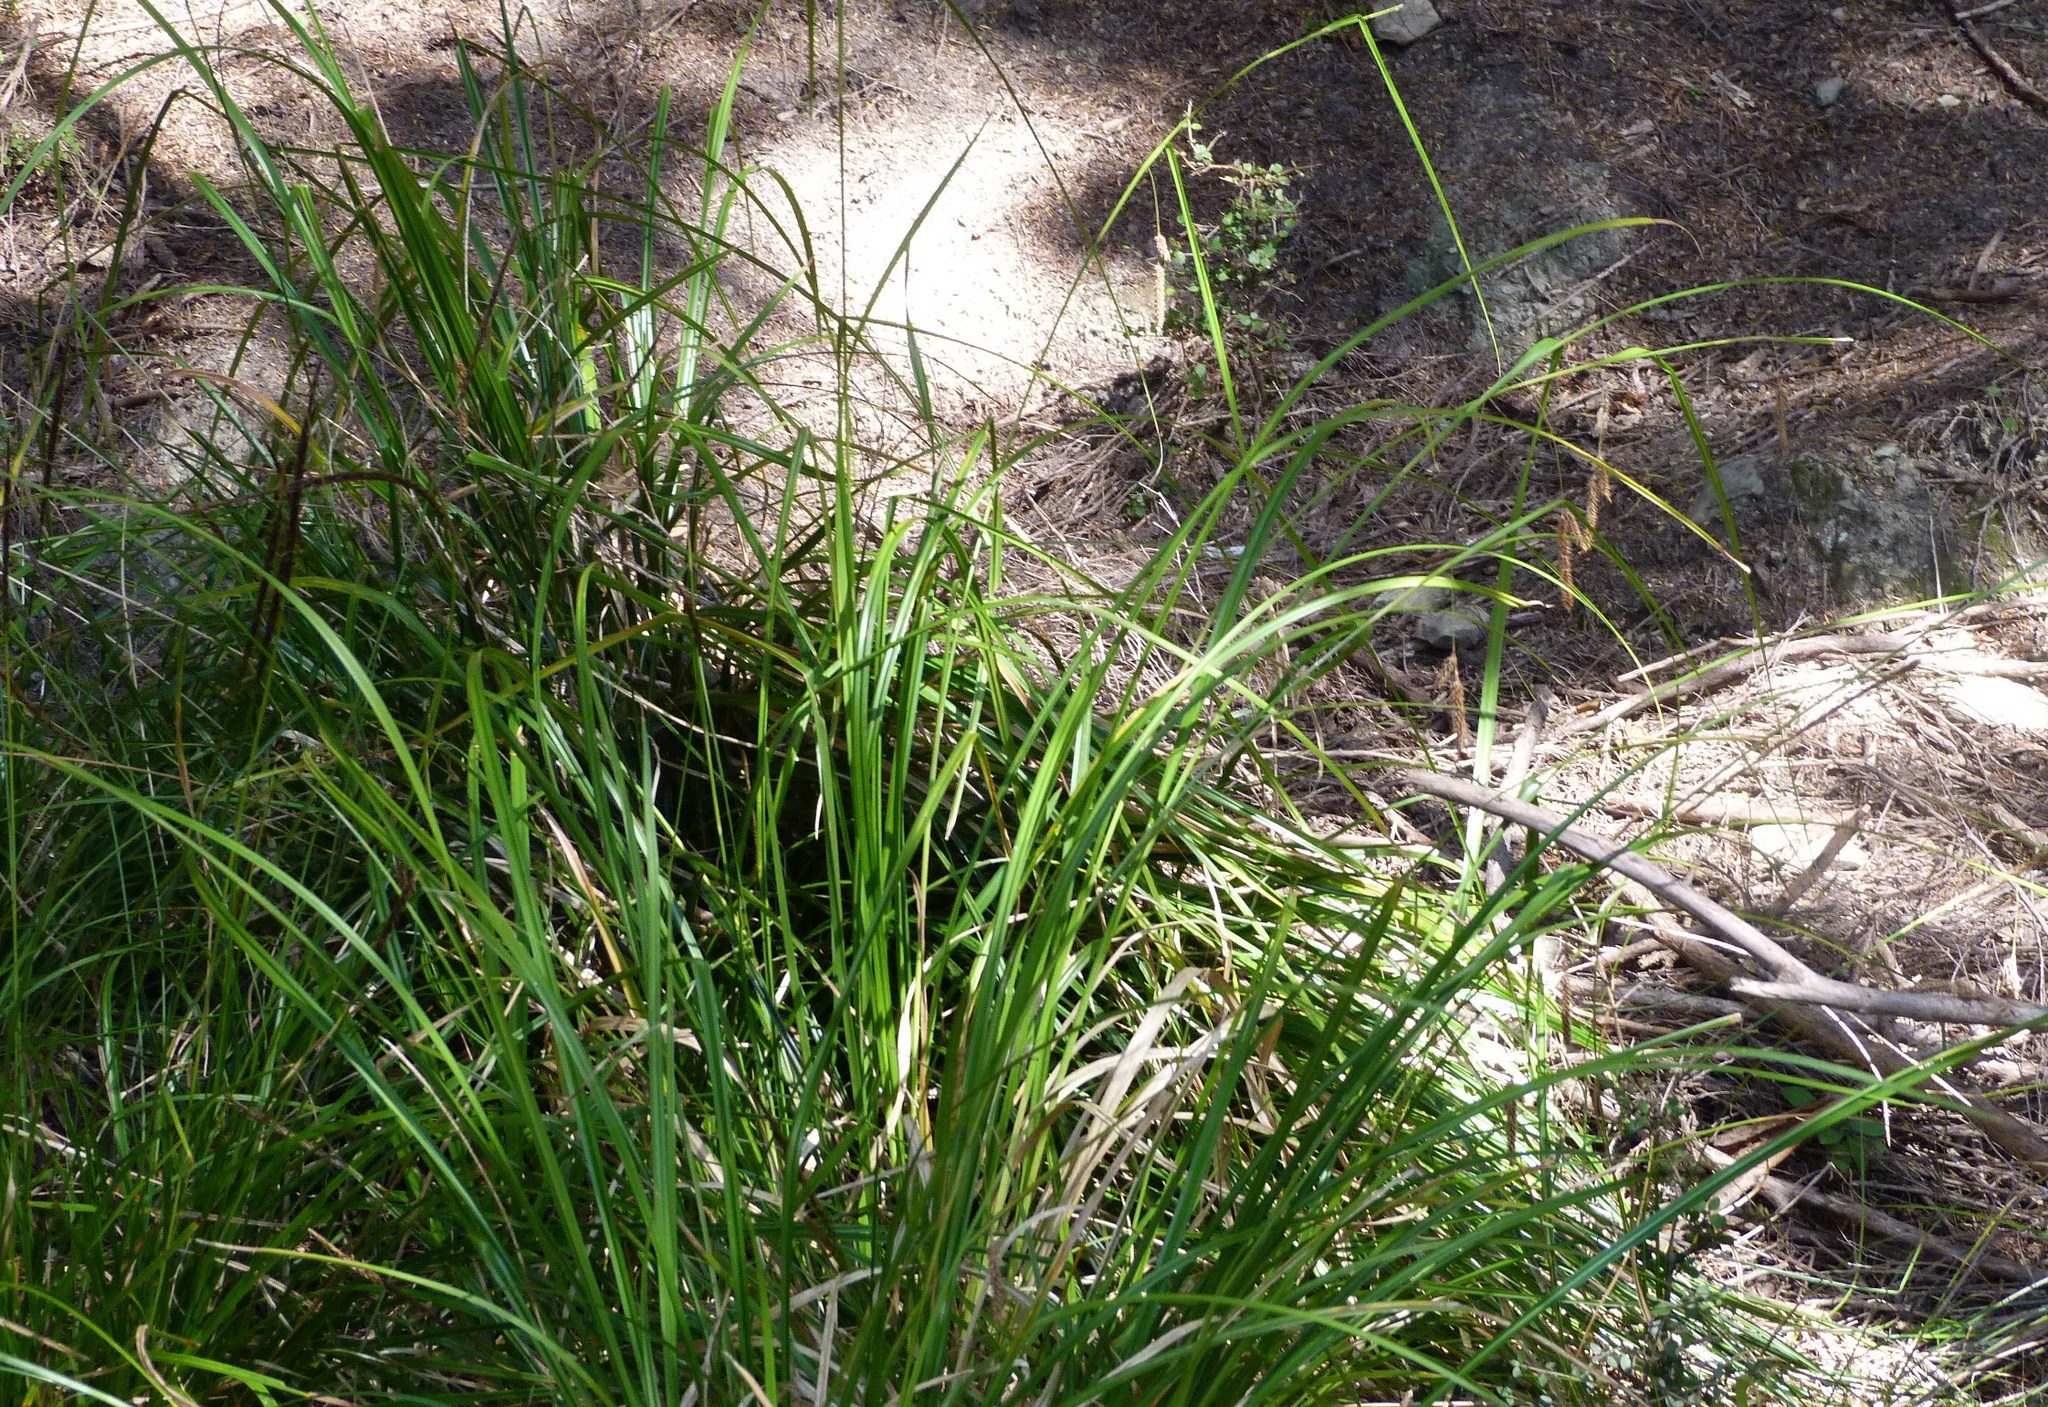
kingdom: Plantae
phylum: Tracheophyta
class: Liliopsida
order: Poales
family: Cyperaceae
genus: Carex
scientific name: Carex solandri
